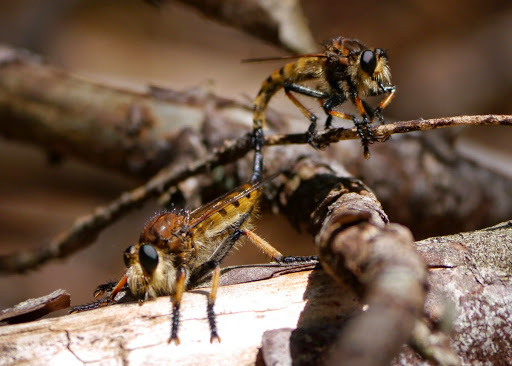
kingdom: Animalia
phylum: Arthropoda
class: Insecta
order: Diptera
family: Asilidae
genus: Promachus
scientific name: Promachus rufipes
